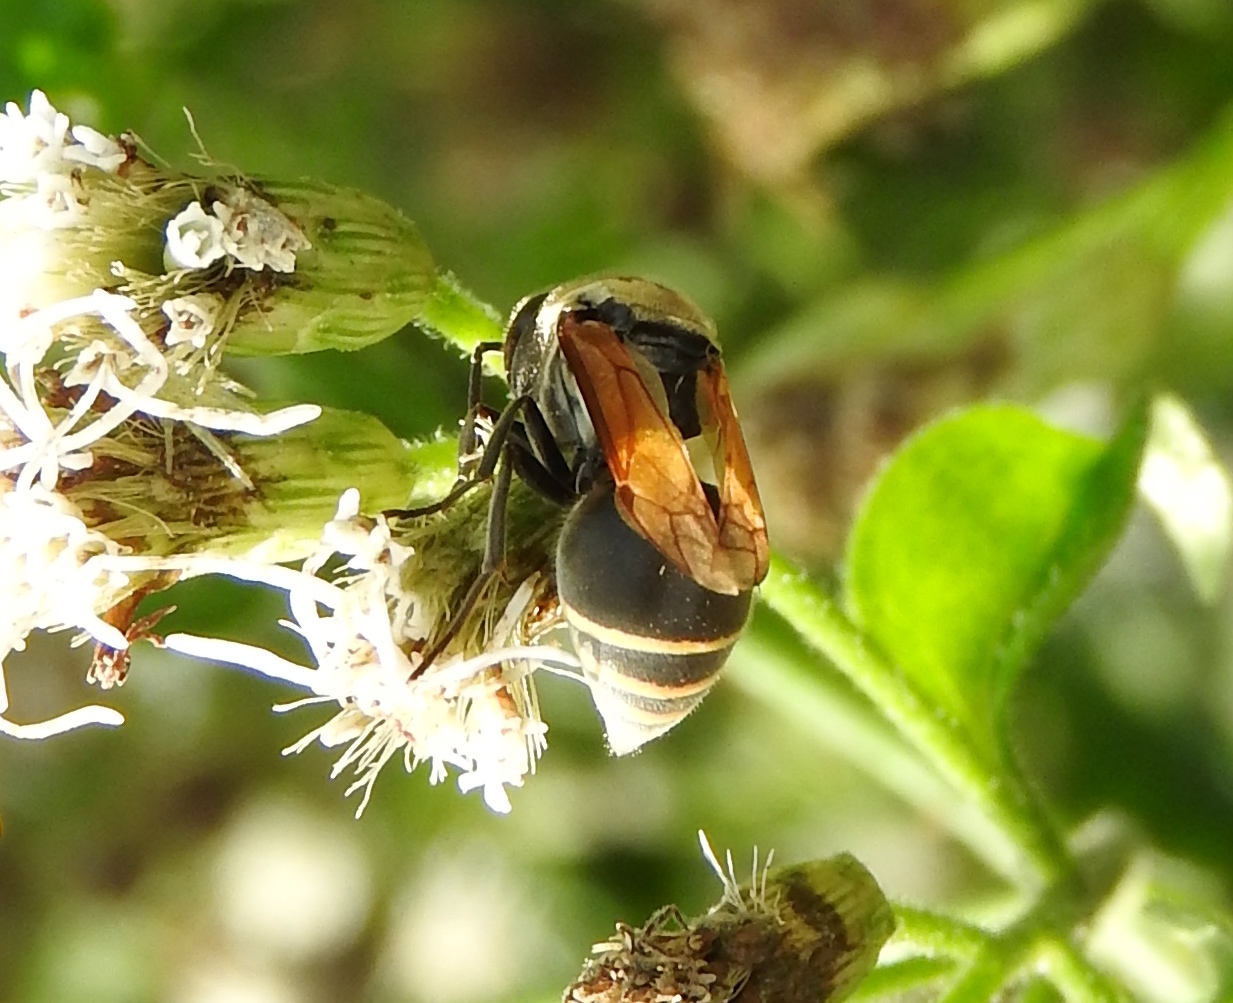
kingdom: Animalia
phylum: Arthropoda
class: Insecta
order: Hymenoptera
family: Vespidae
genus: Brachygastra
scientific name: Brachygastra mellifica
